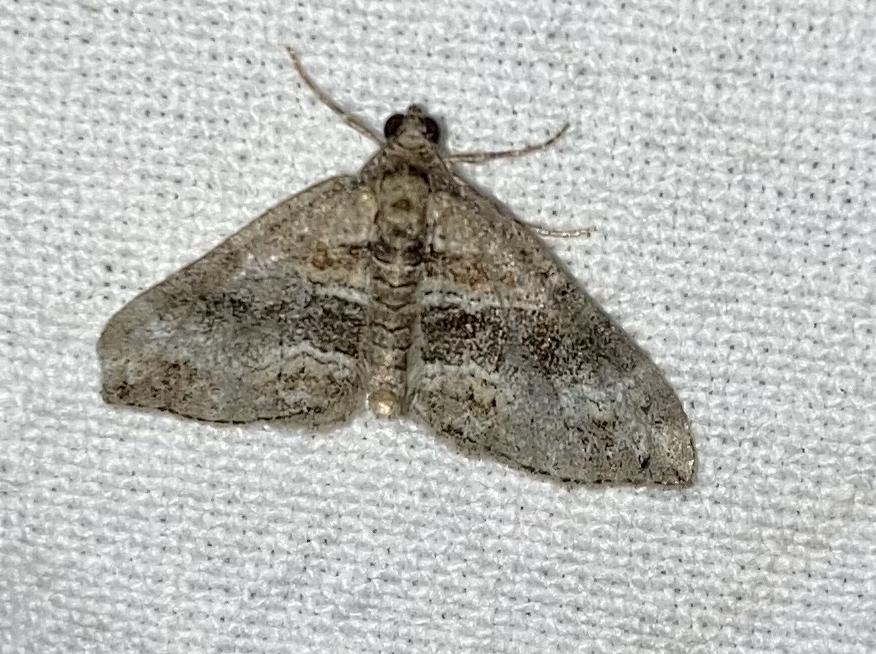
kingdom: Animalia
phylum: Arthropoda
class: Insecta
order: Lepidoptera
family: Geometridae
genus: Perizoma
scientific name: Perizoma bifaciata
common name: Barred rivulet
